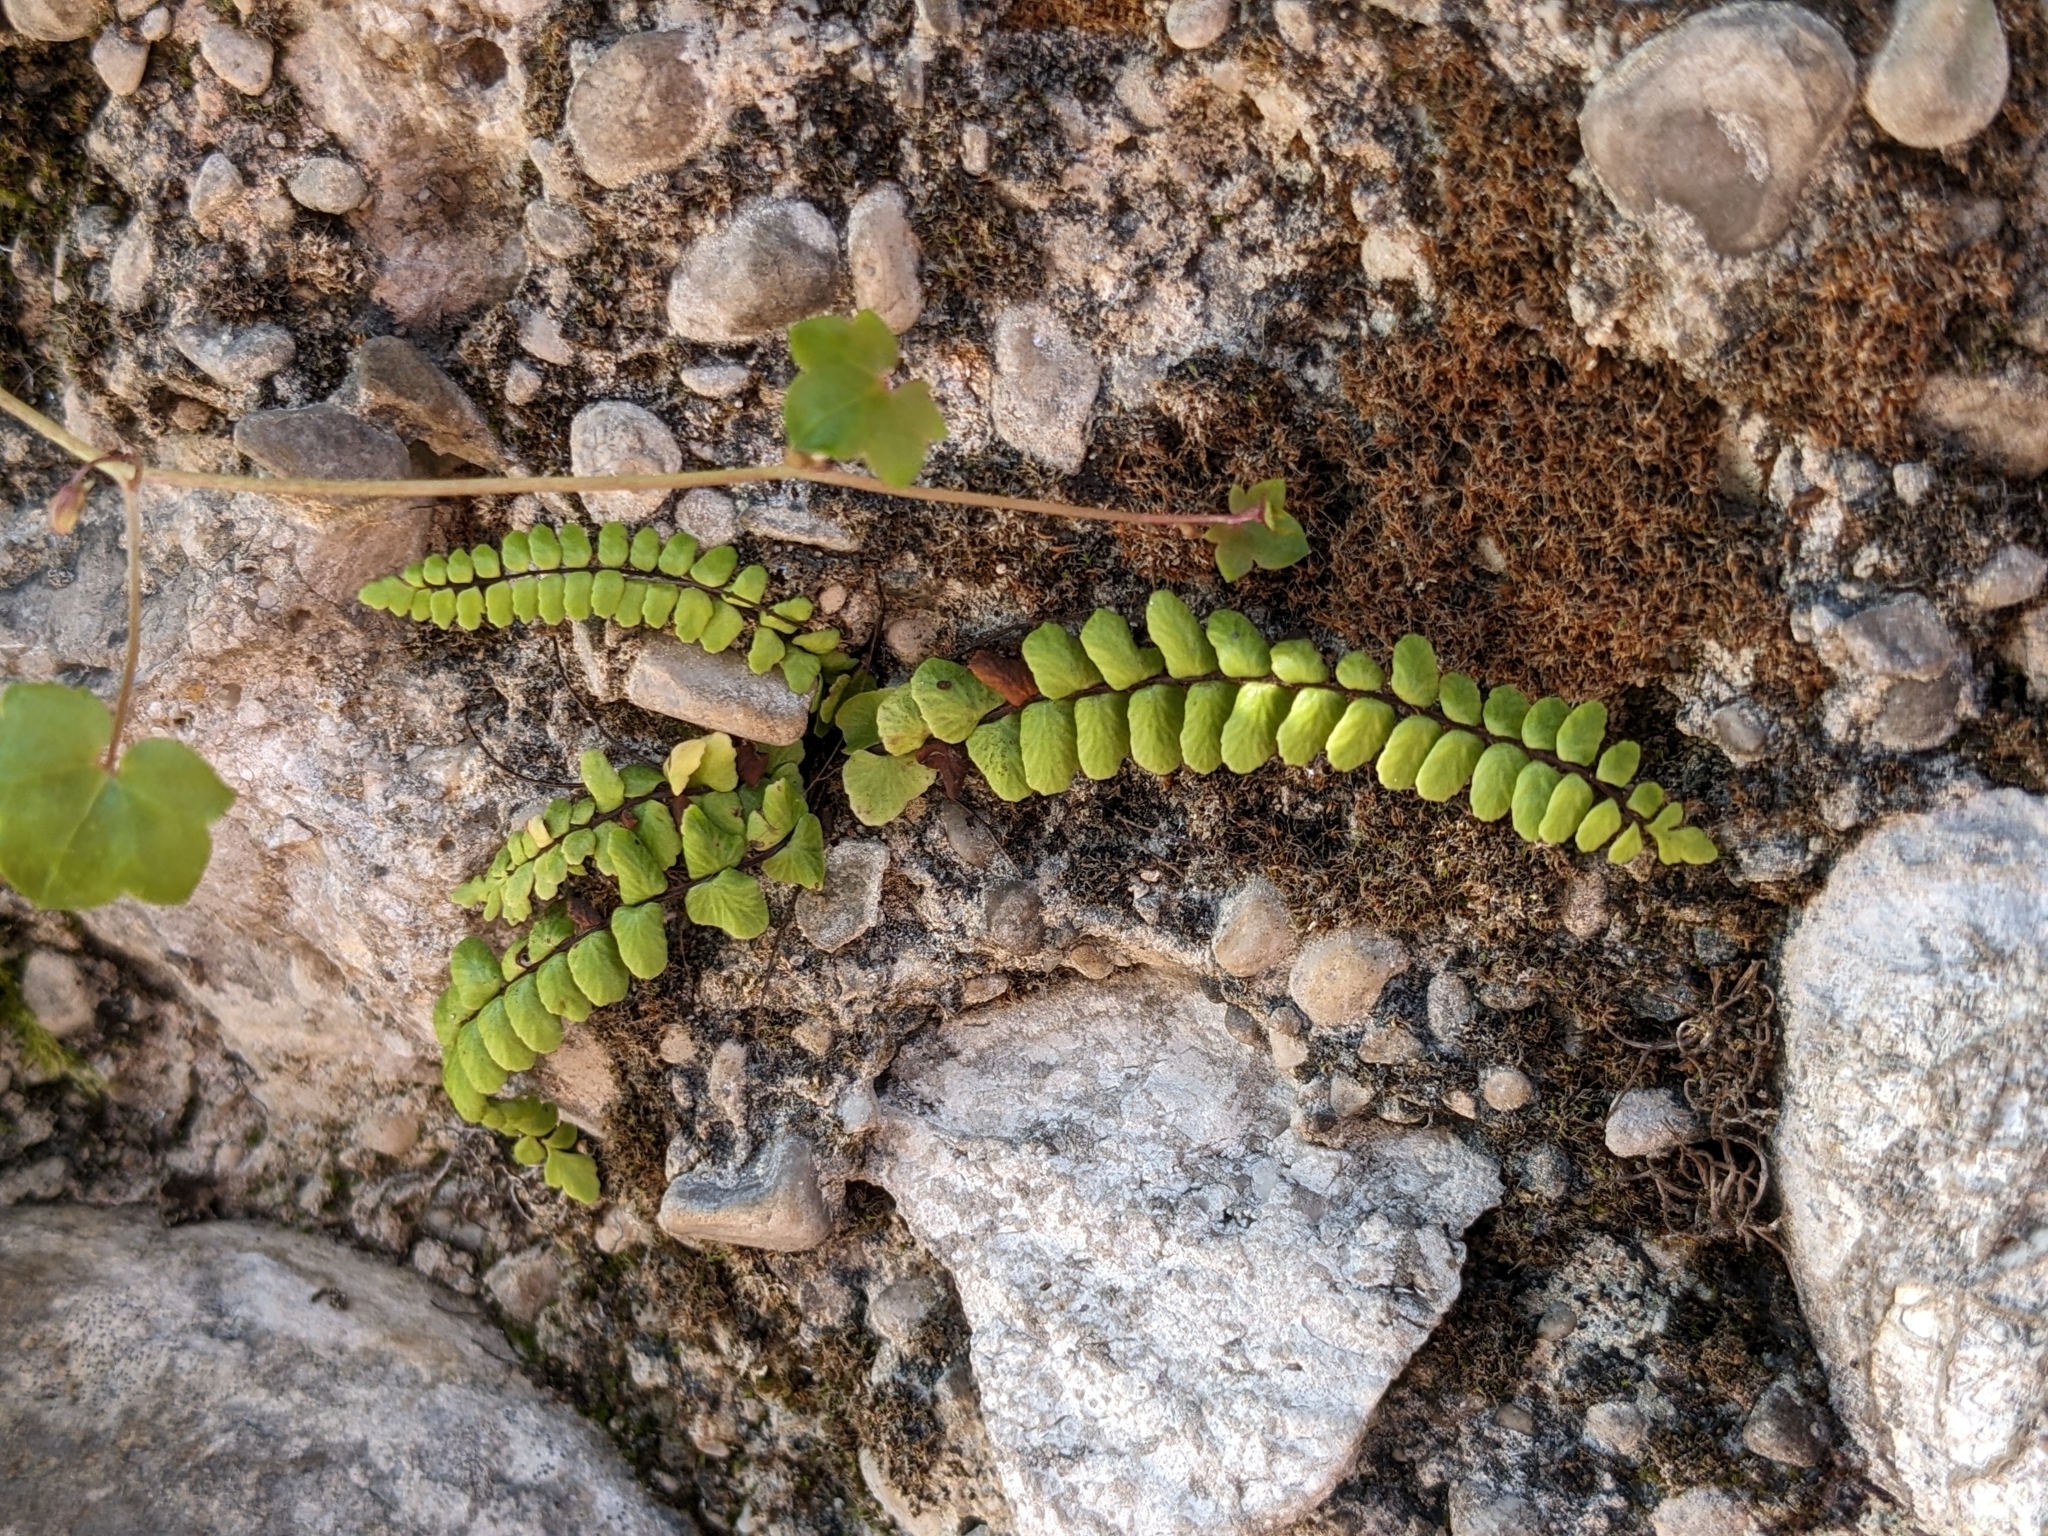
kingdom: Plantae
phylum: Tracheophyta
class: Polypodiopsida
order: Polypodiales
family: Aspleniaceae
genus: Asplenium
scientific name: Asplenium trichomanes
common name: Maidenhair spleenwort
